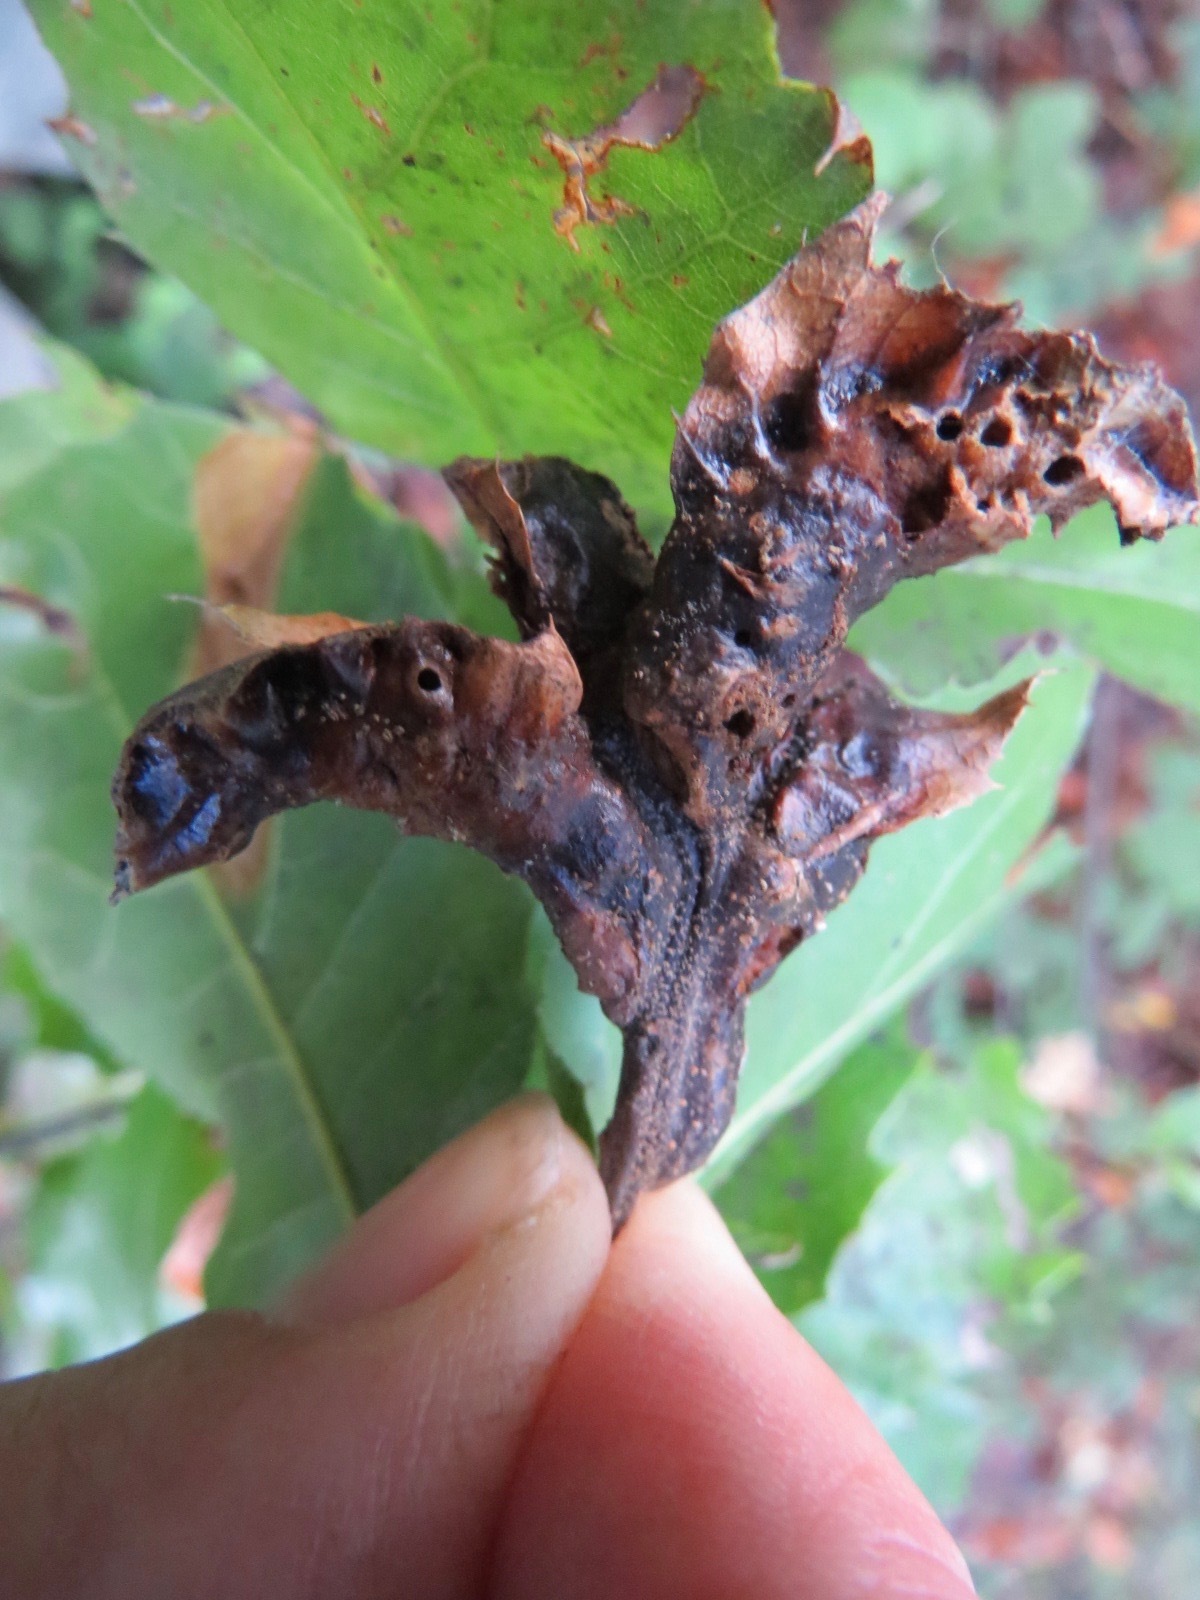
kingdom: Animalia
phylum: Arthropoda
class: Insecta
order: Hymenoptera
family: Cynipidae
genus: Melikaiella
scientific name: Melikaiella
